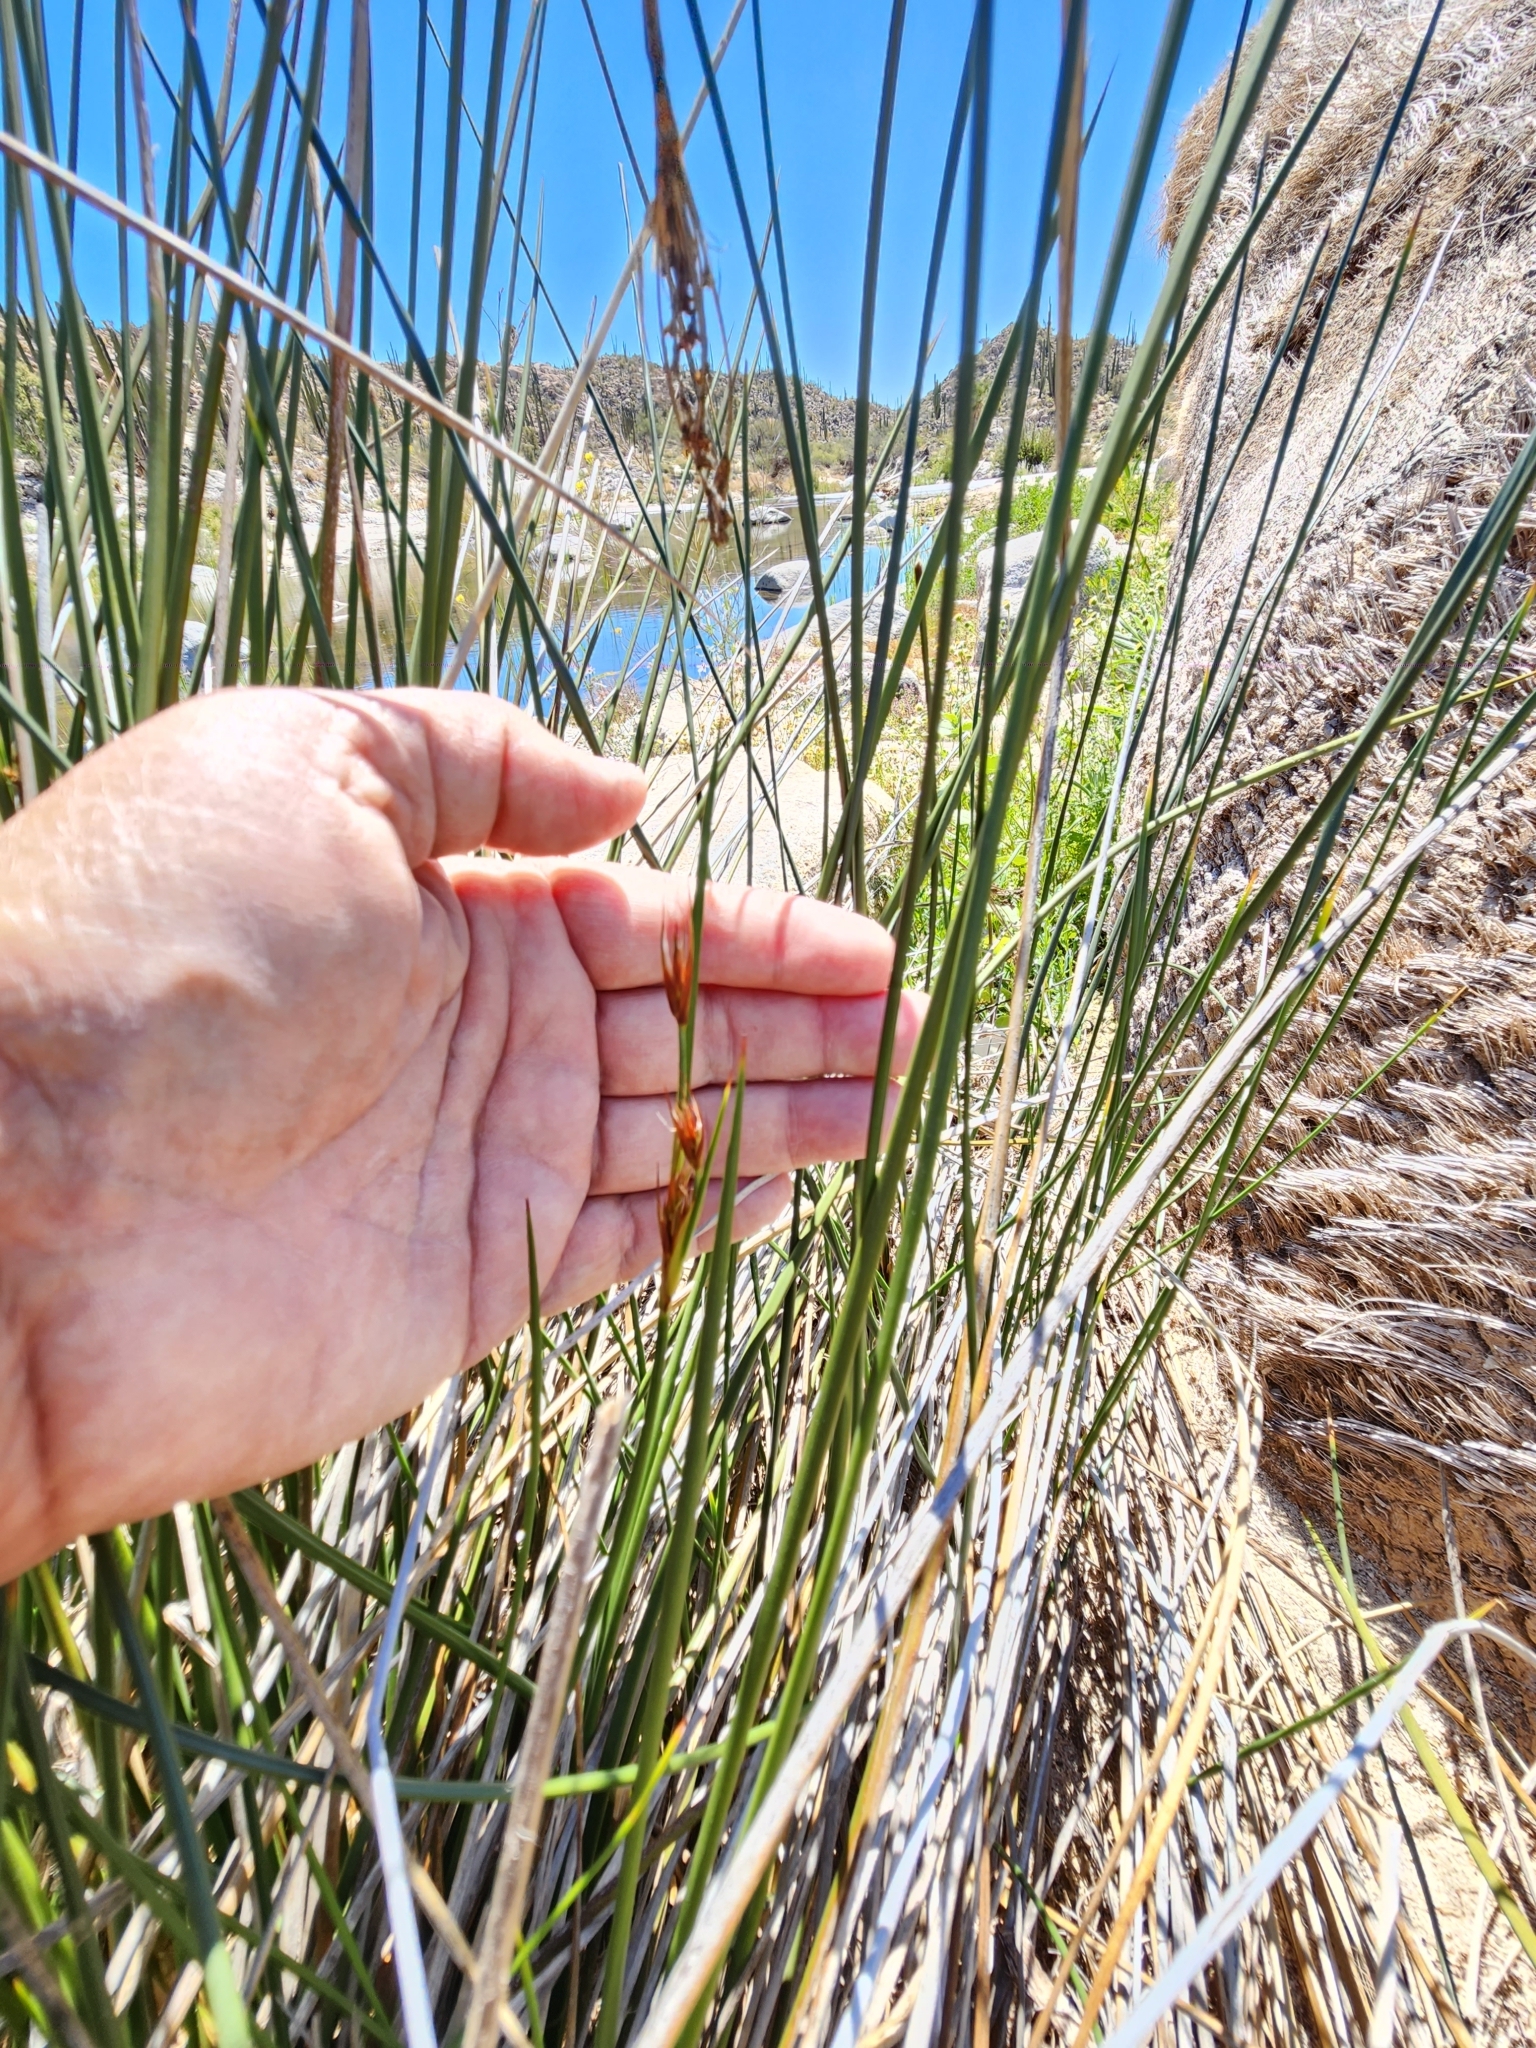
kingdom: Plantae
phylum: Tracheophyta
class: Liliopsida
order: Poales
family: Juncaceae
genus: Juncus
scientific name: Juncus acutus
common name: Sharp rush
